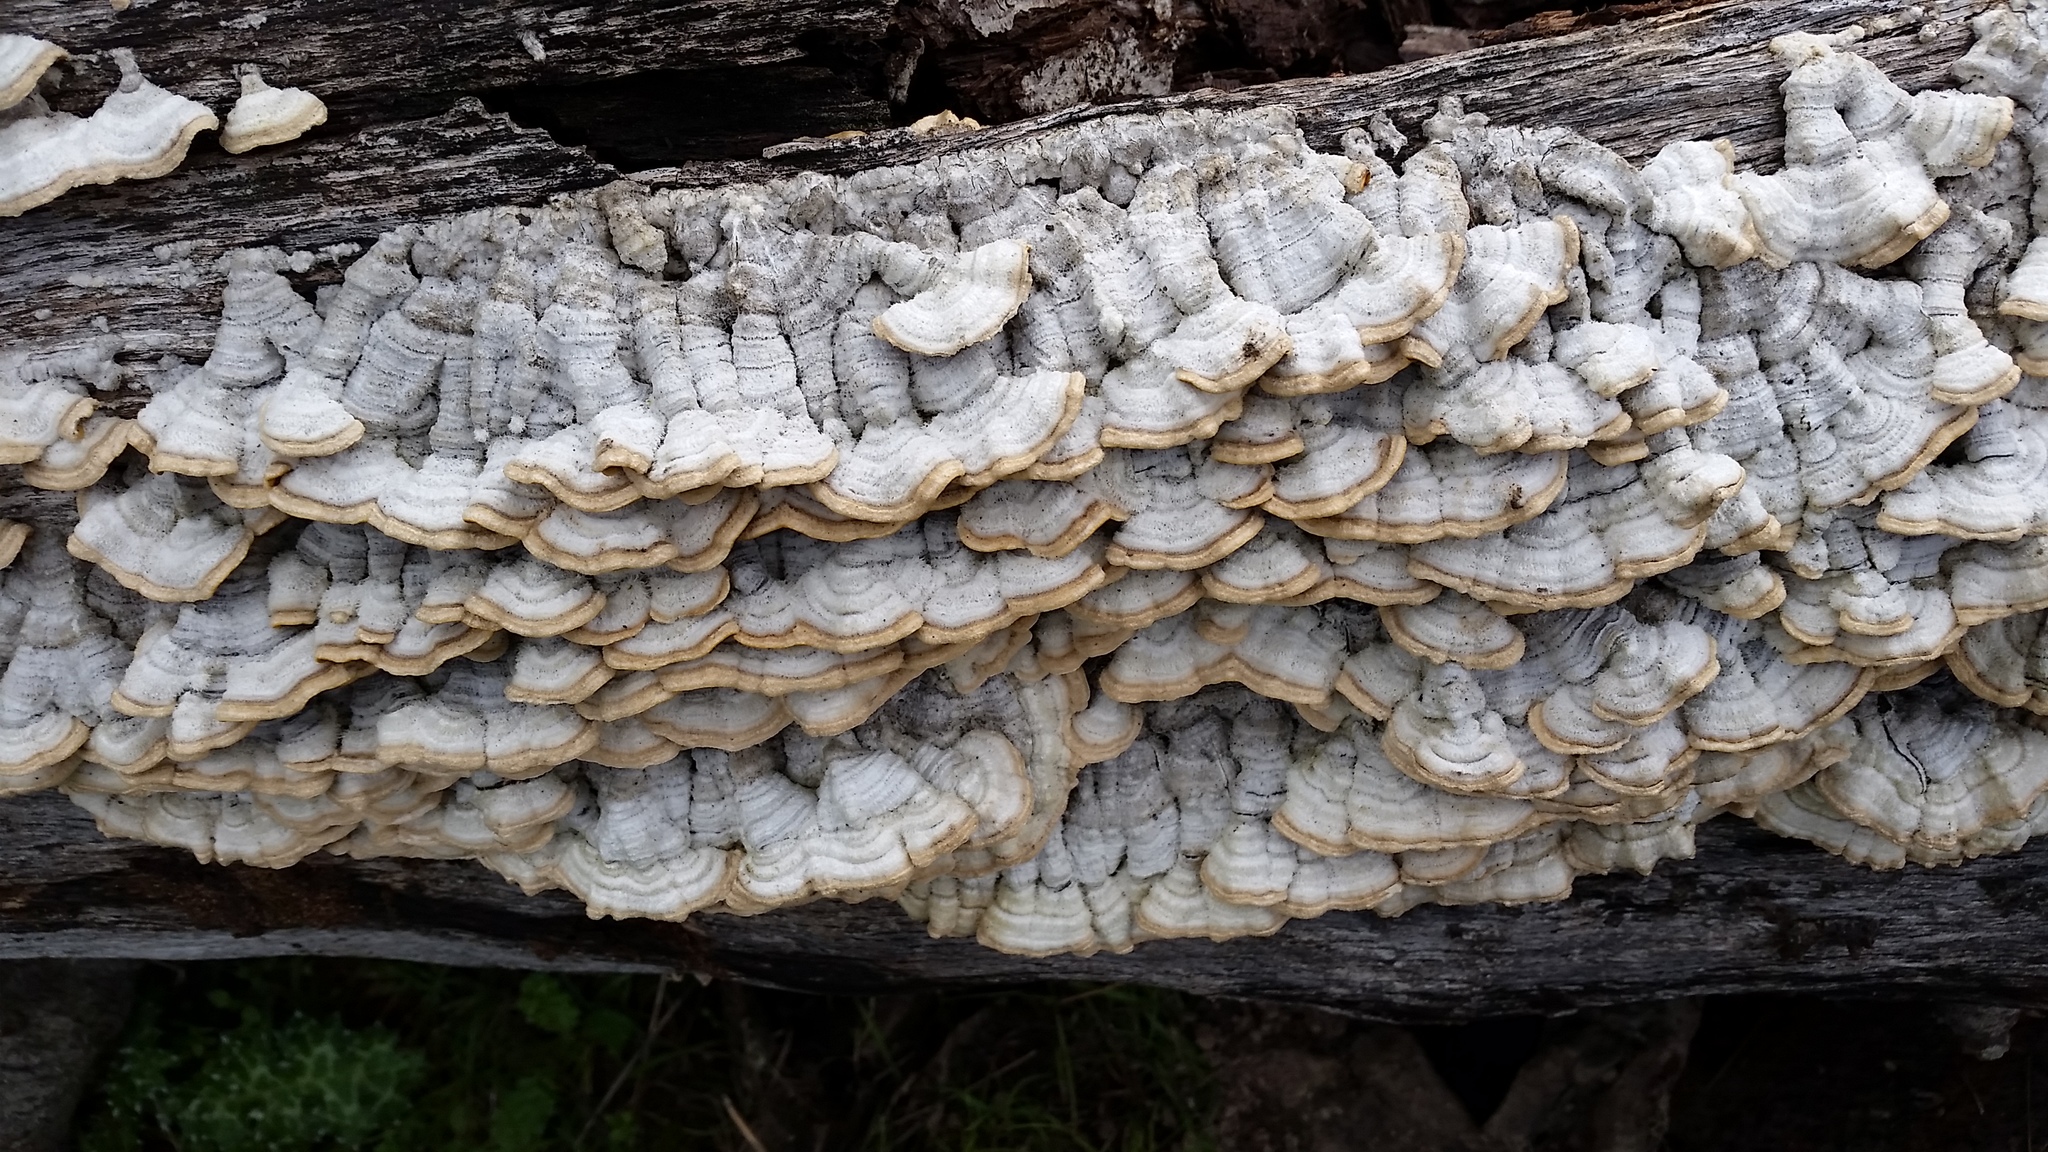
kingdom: Fungi
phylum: Basidiomycota
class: Agaricomycetes
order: Russulales
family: Stereaceae
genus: Stereum
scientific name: Stereum hirsutum
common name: Hairy curtain crust
